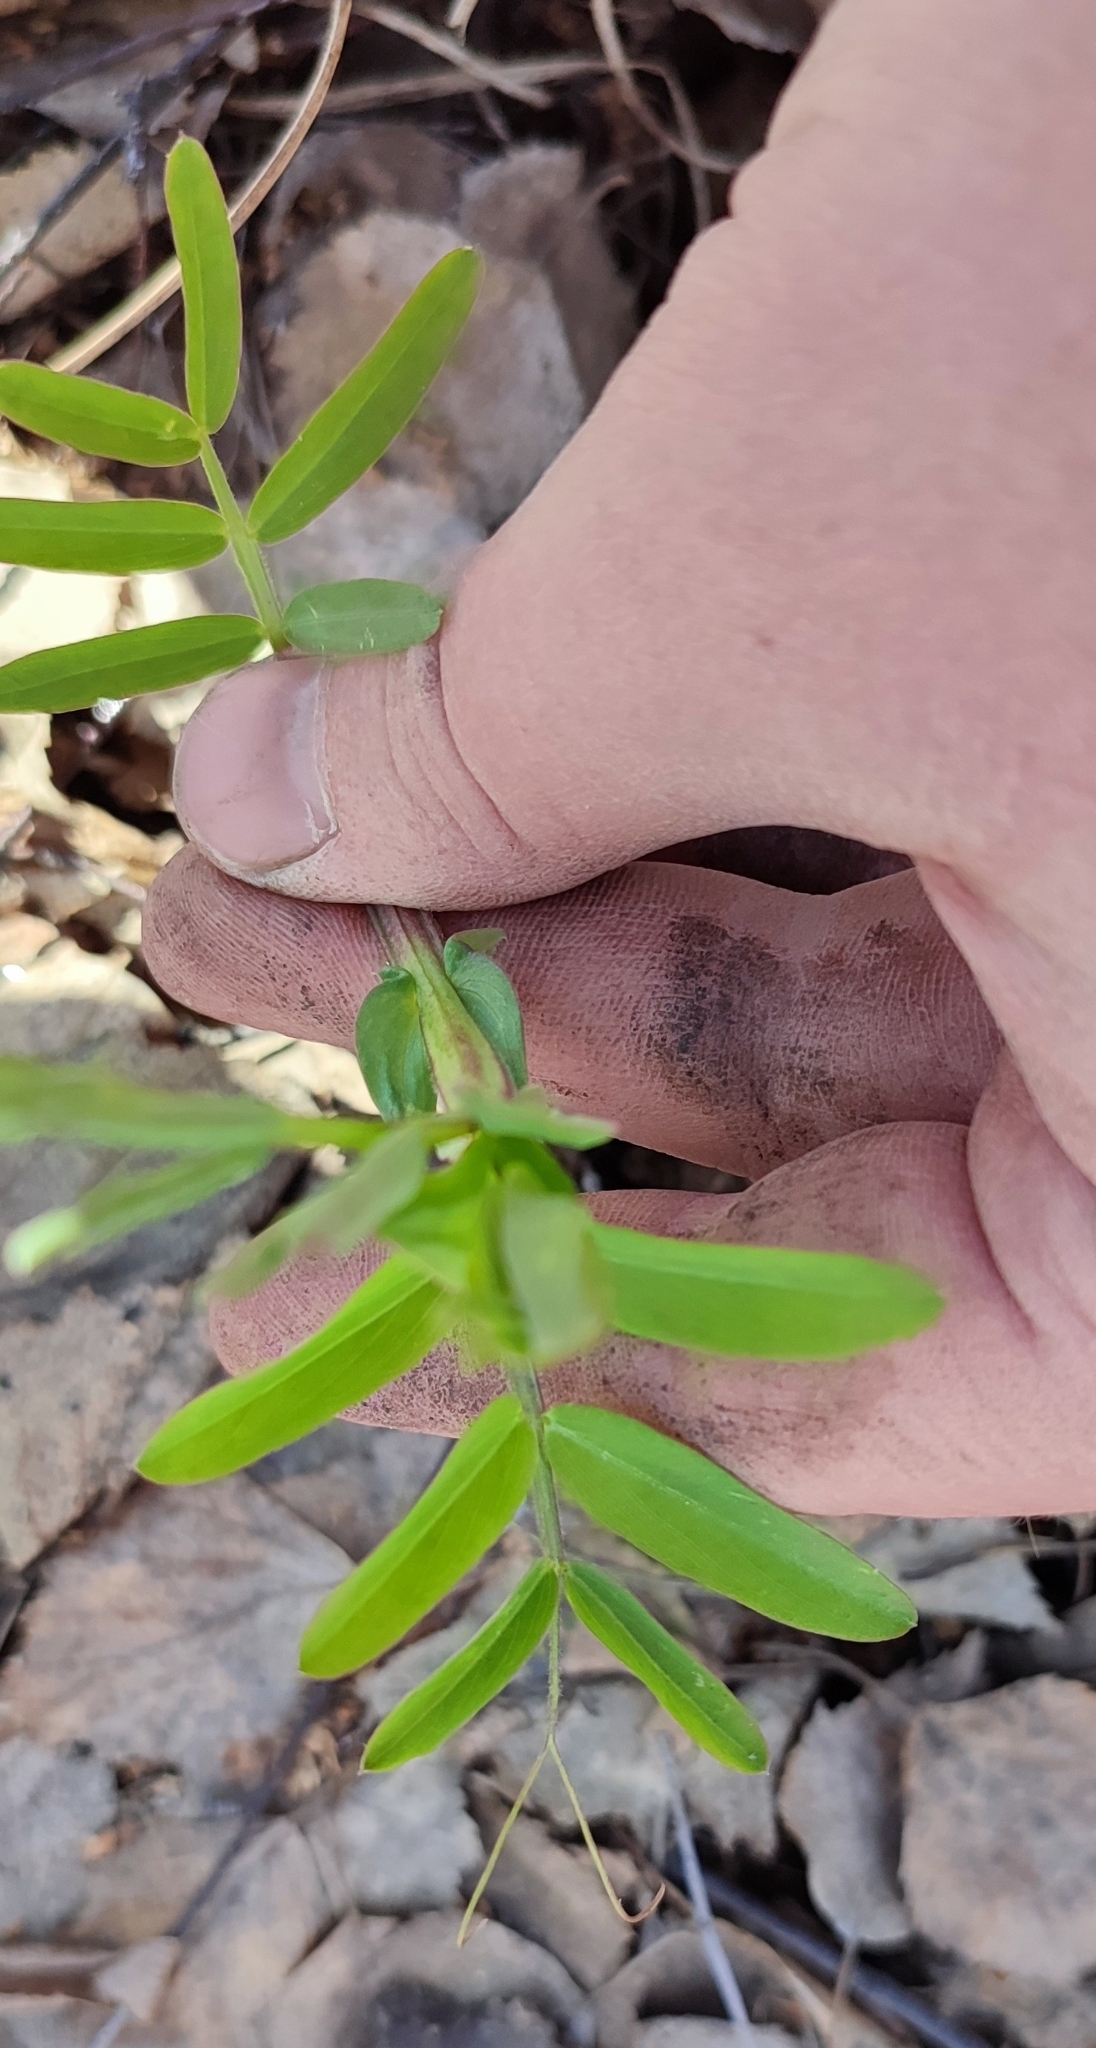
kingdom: Plantae
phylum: Tracheophyta
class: Magnoliopsida
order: Fabales
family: Fabaceae
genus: Lathyrus
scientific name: Lathyrus pisiformis
